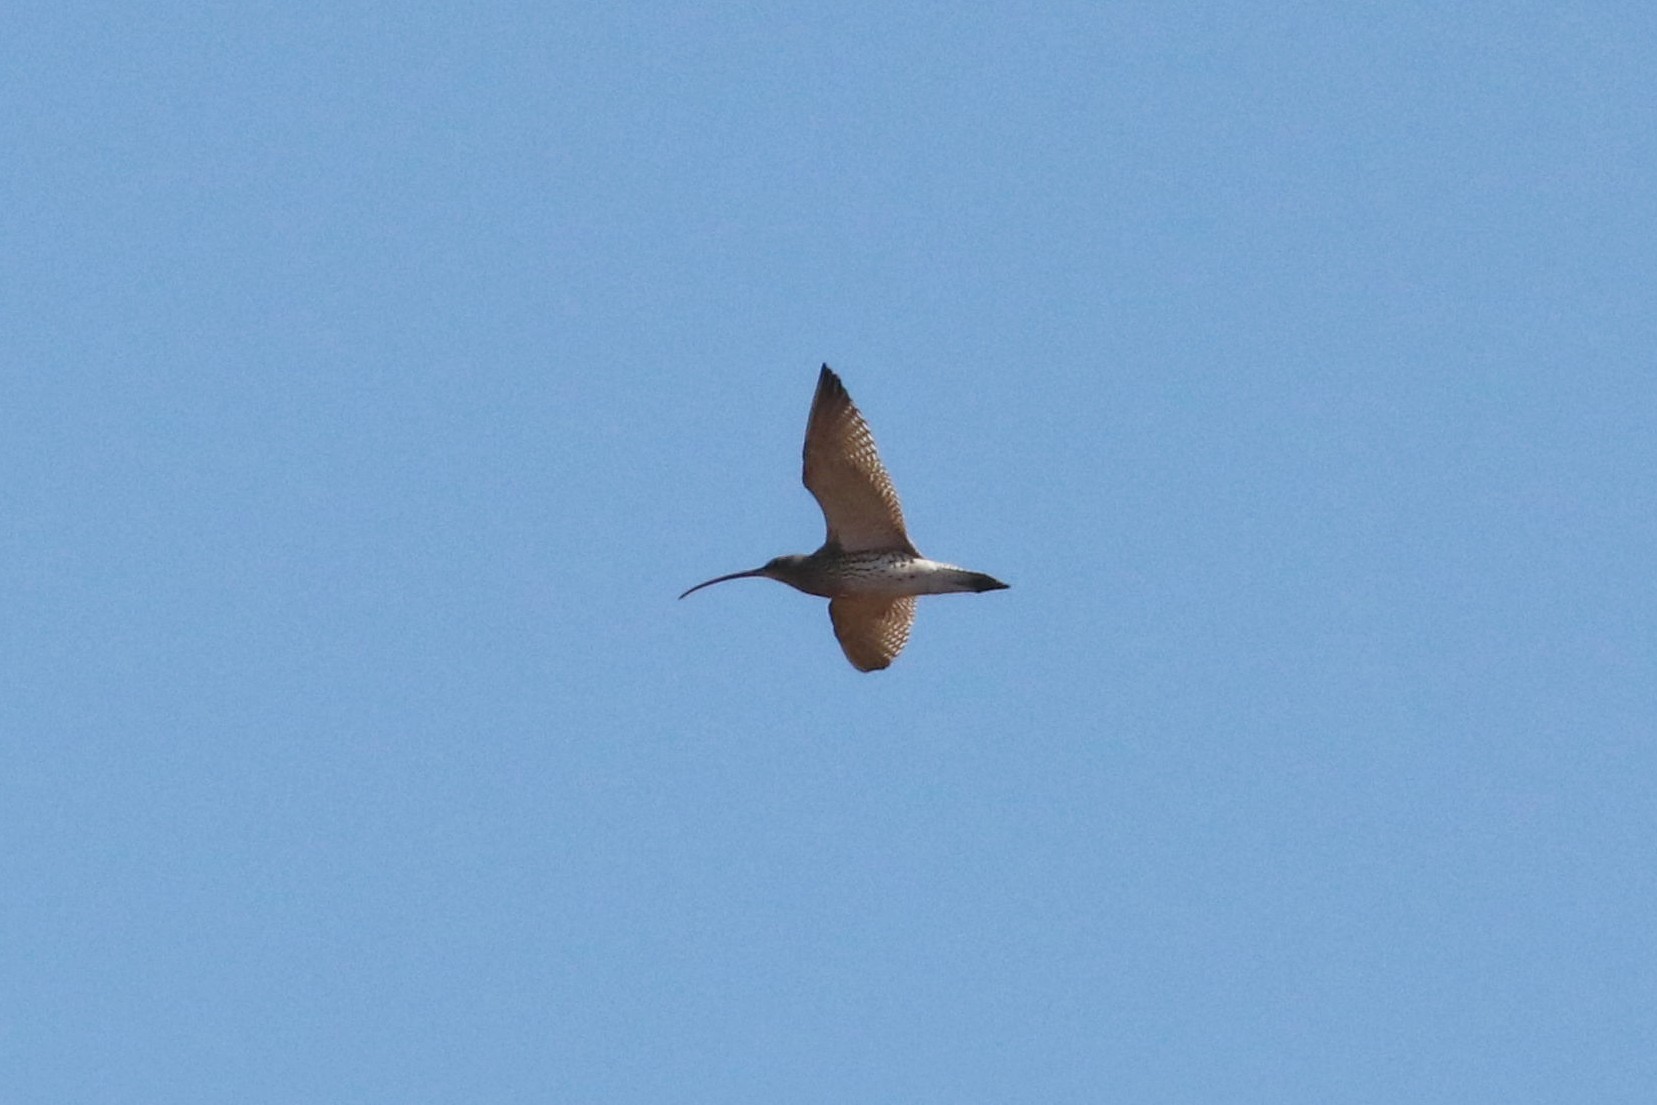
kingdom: Animalia
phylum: Chordata
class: Aves
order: Charadriiformes
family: Scolopacidae
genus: Numenius
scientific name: Numenius arquata
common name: Eurasian curlew
